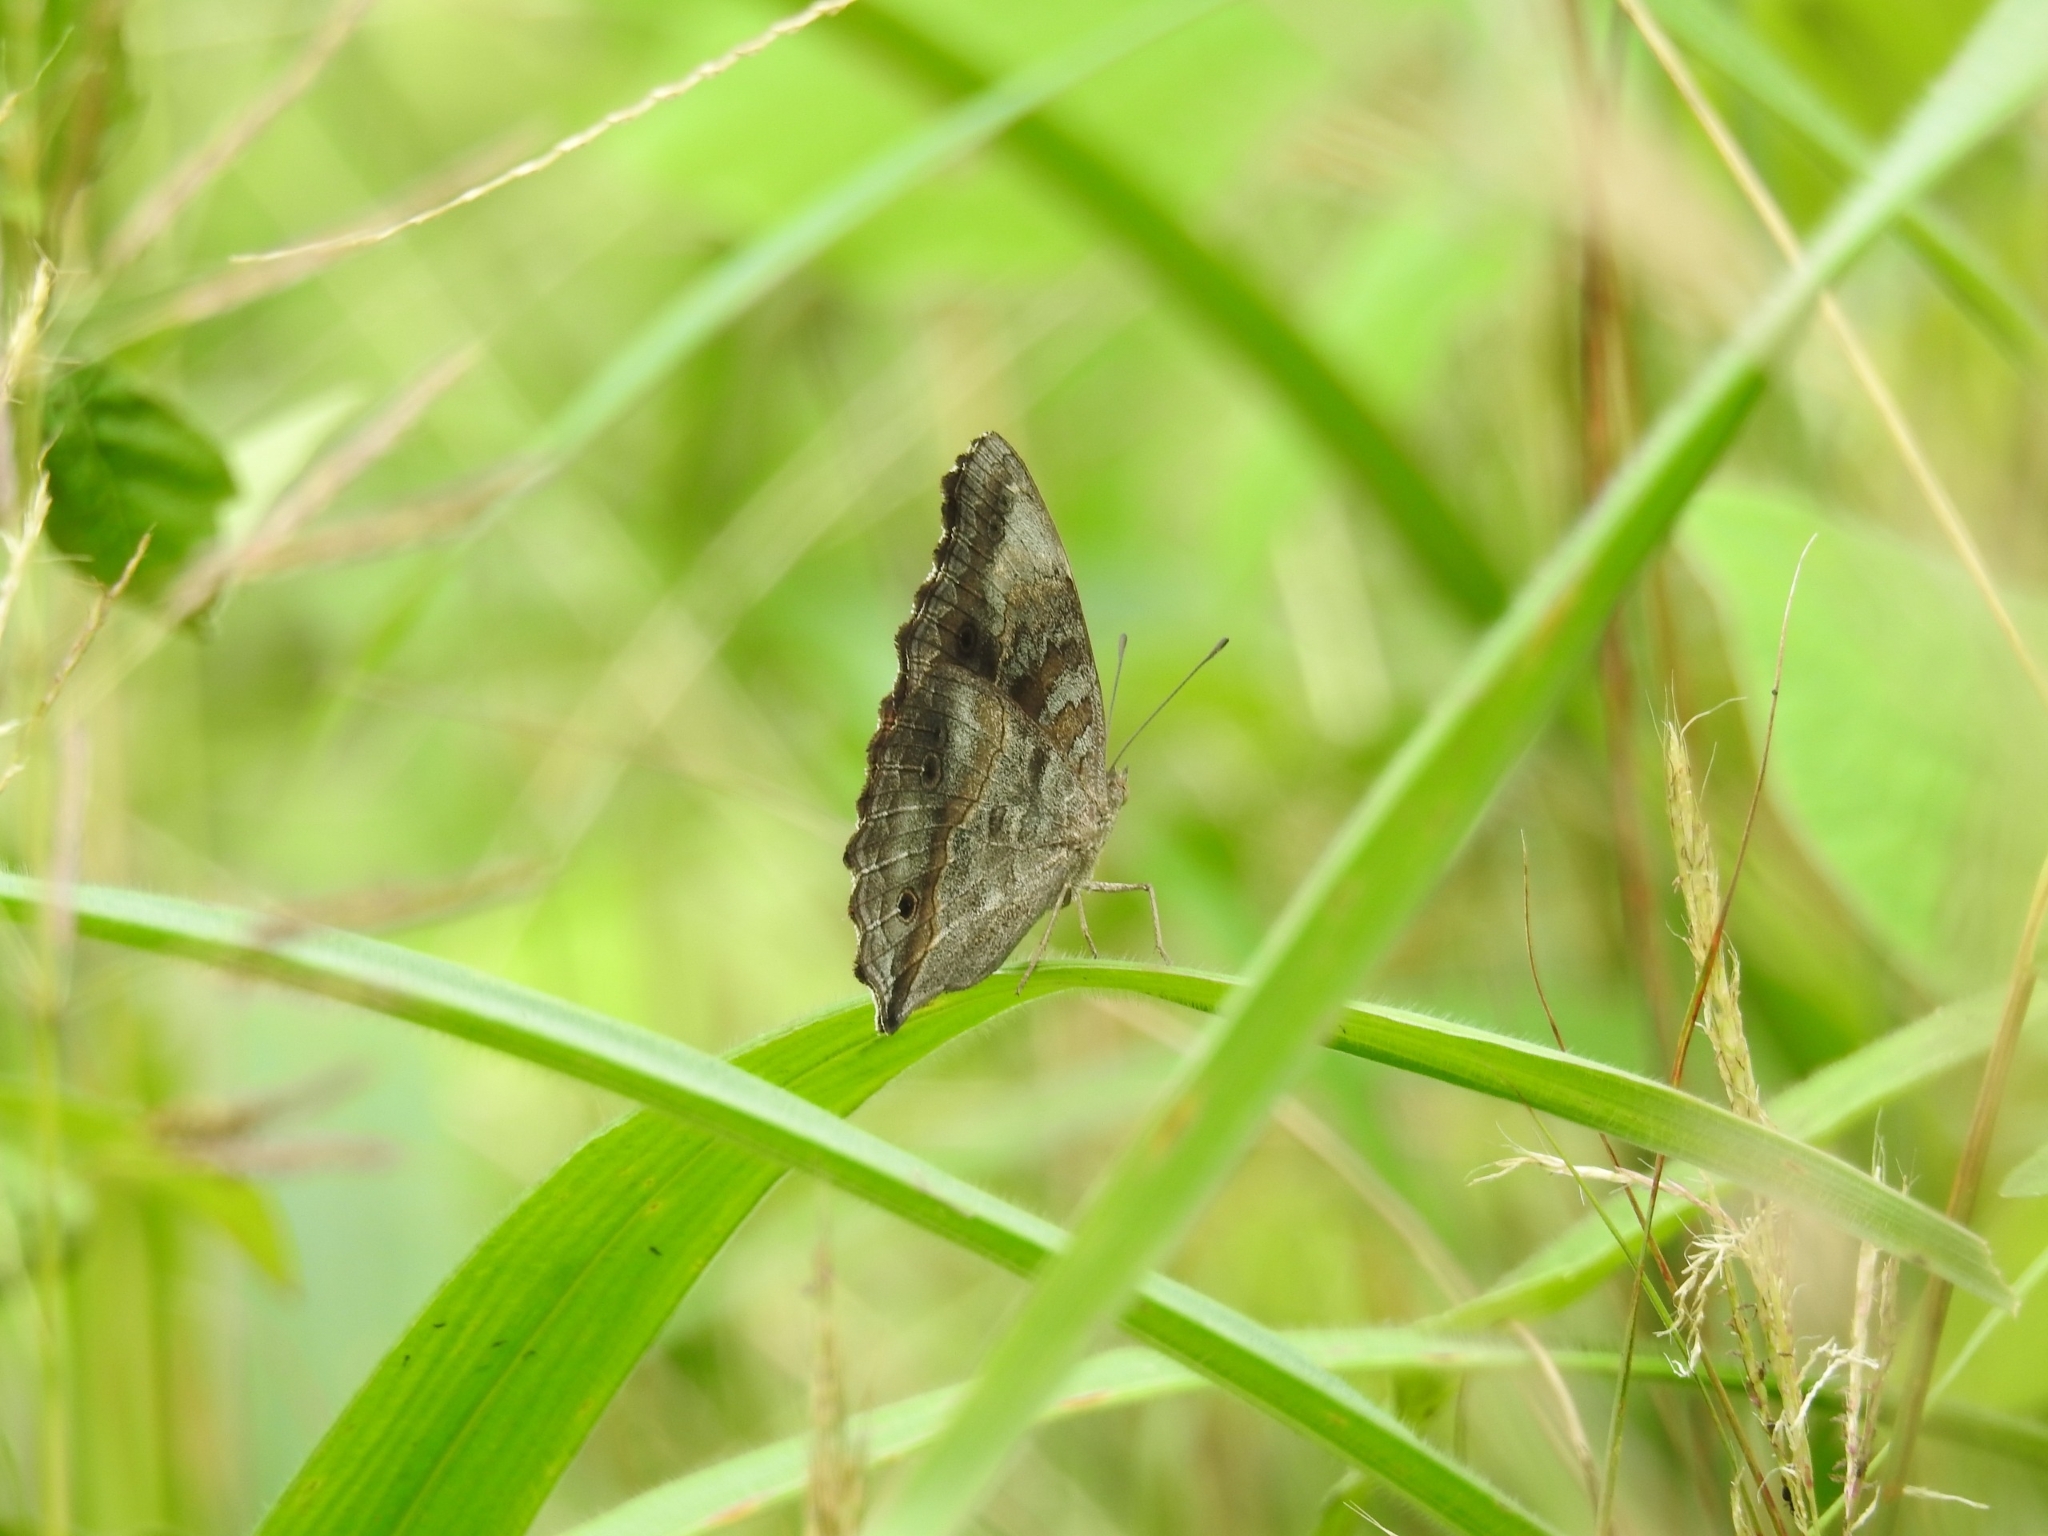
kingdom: Animalia
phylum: Arthropoda
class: Insecta
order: Lepidoptera
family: Nymphalidae
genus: Junonia
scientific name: Junonia timorensis
